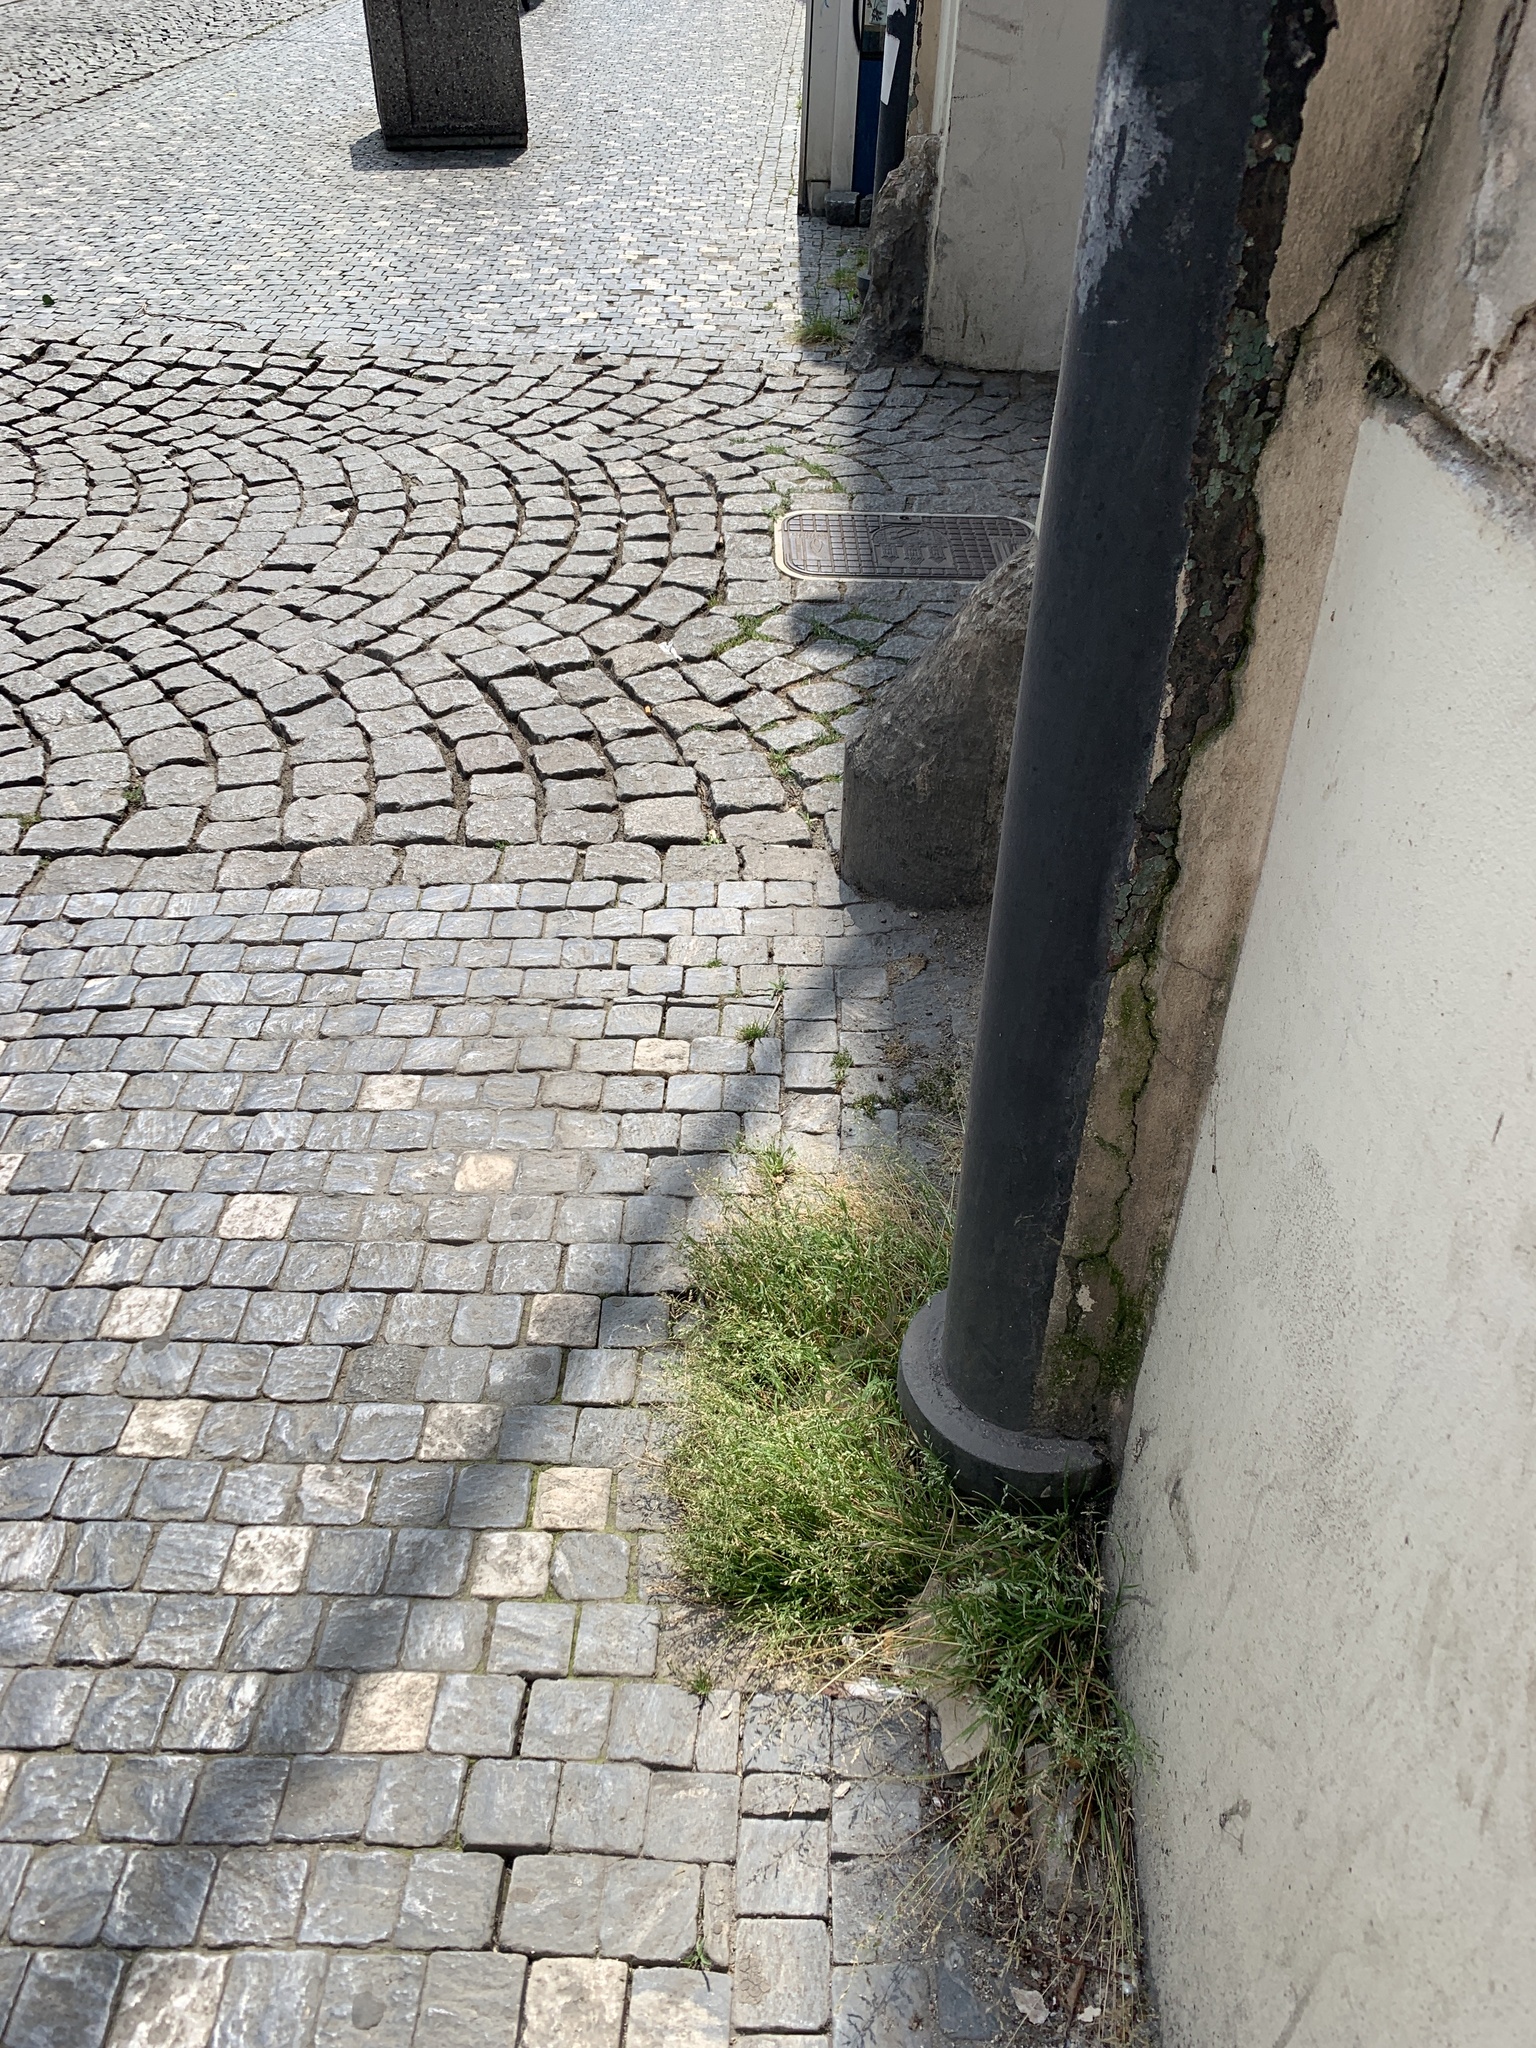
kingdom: Plantae
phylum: Tracheophyta
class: Liliopsida
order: Poales
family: Poaceae
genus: Poa
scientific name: Poa annua
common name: Annual bluegrass
